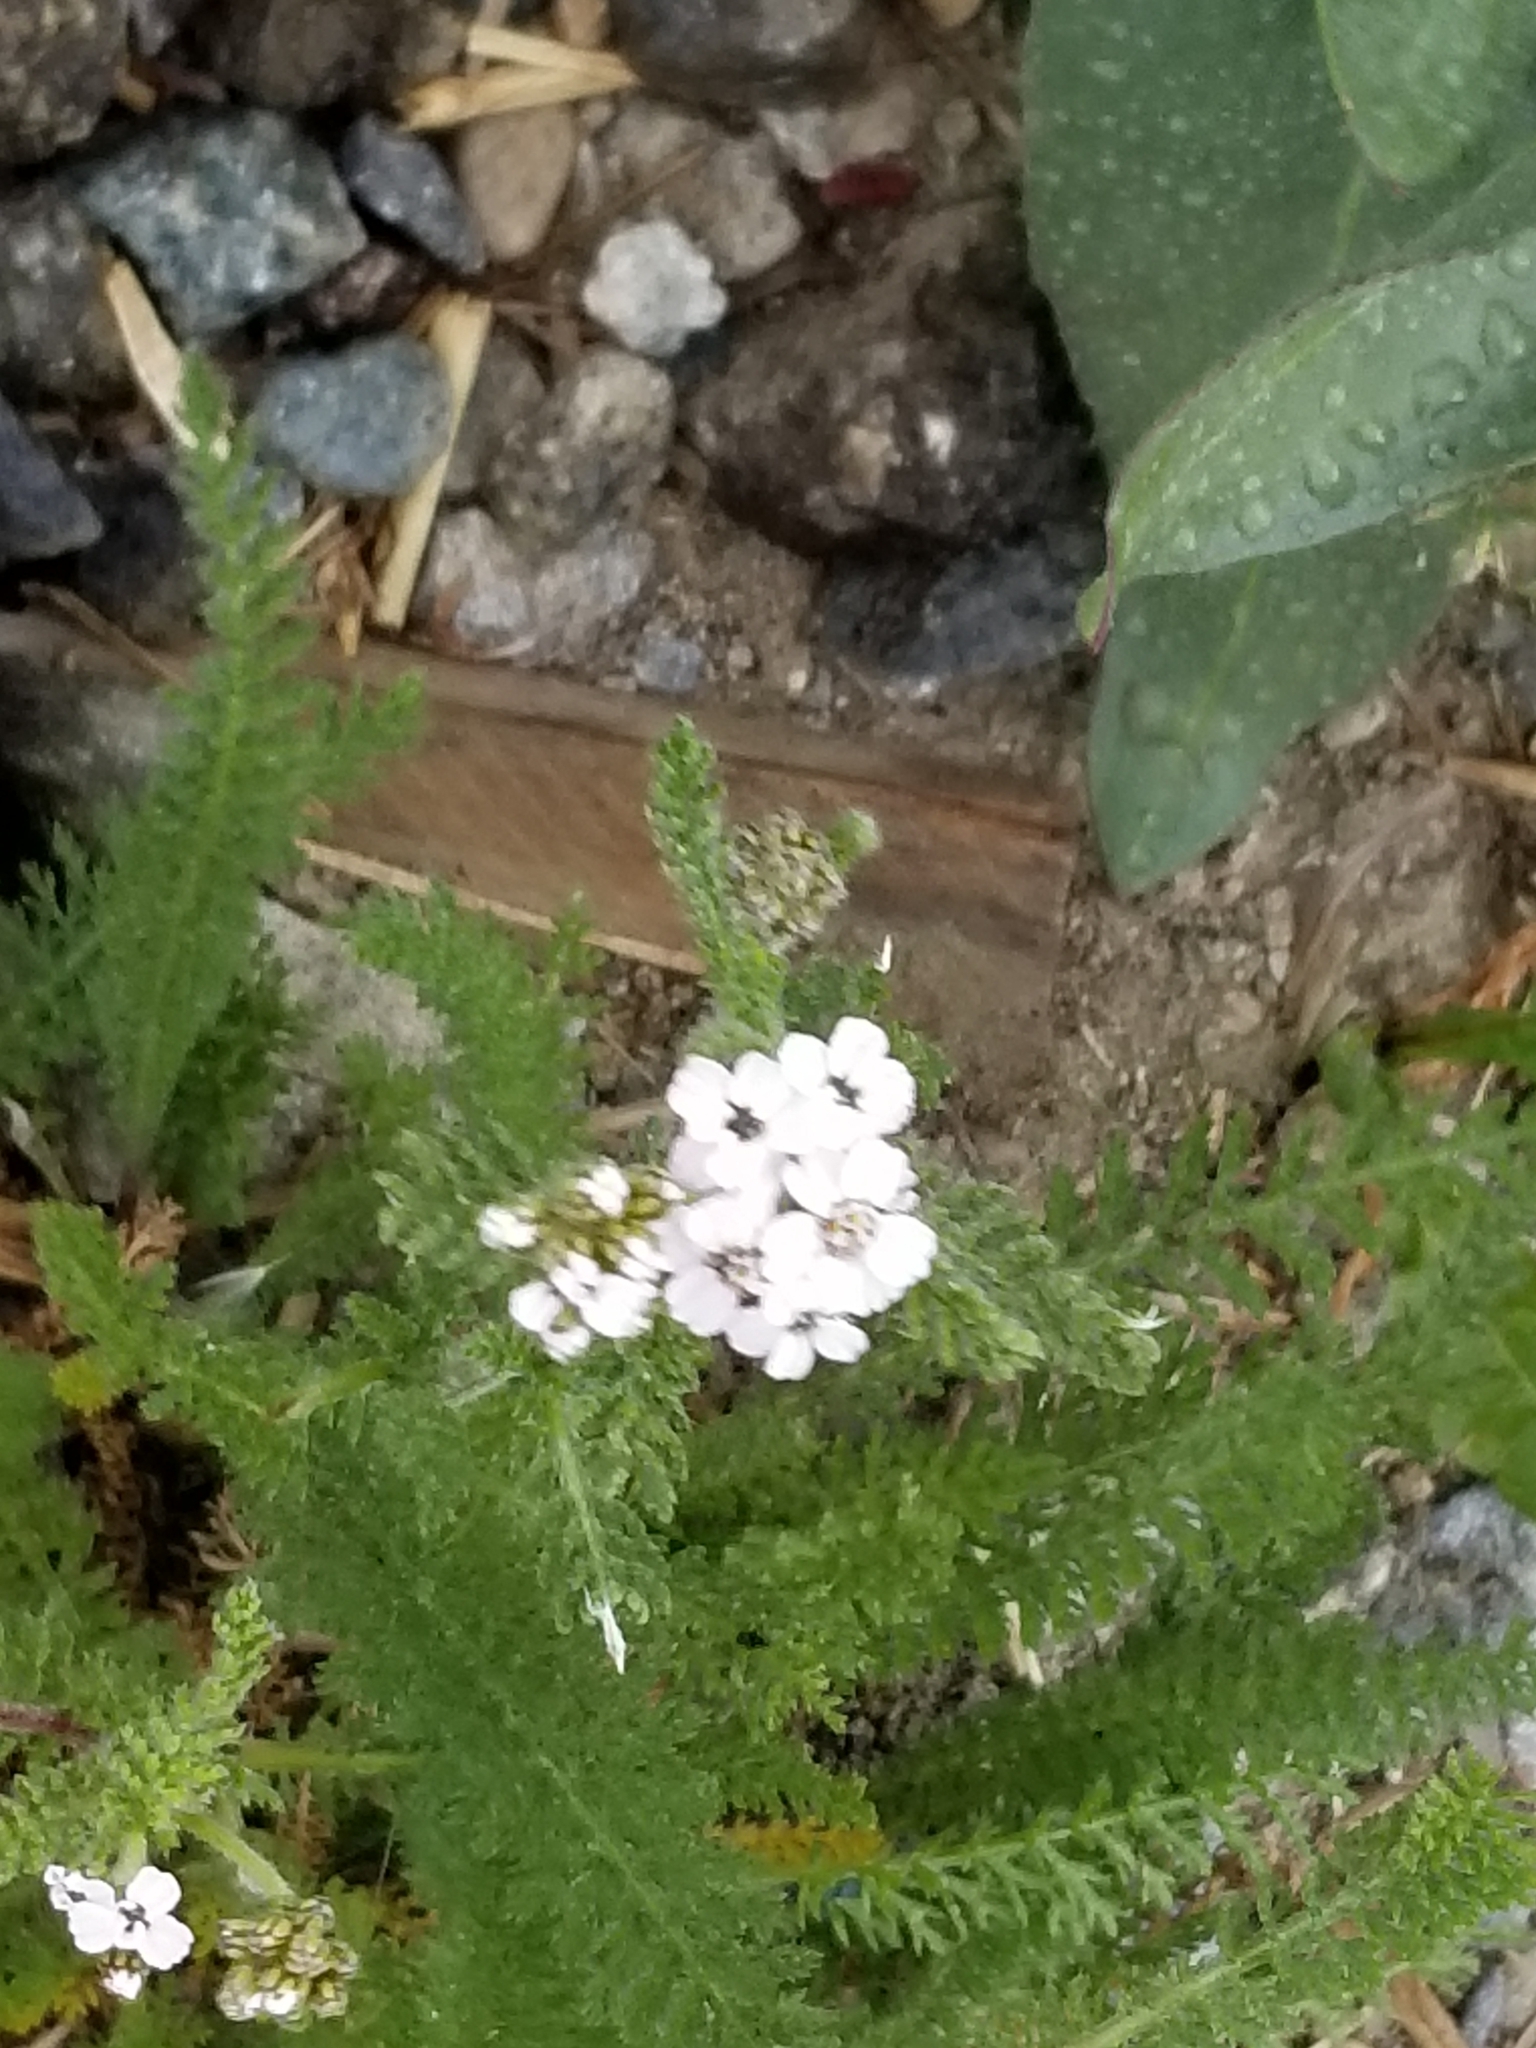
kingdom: Plantae
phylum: Tracheophyta
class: Magnoliopsida
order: Asterales
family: Asteraceae
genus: Achillea
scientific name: Achillea millefolium
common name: Yarrow
